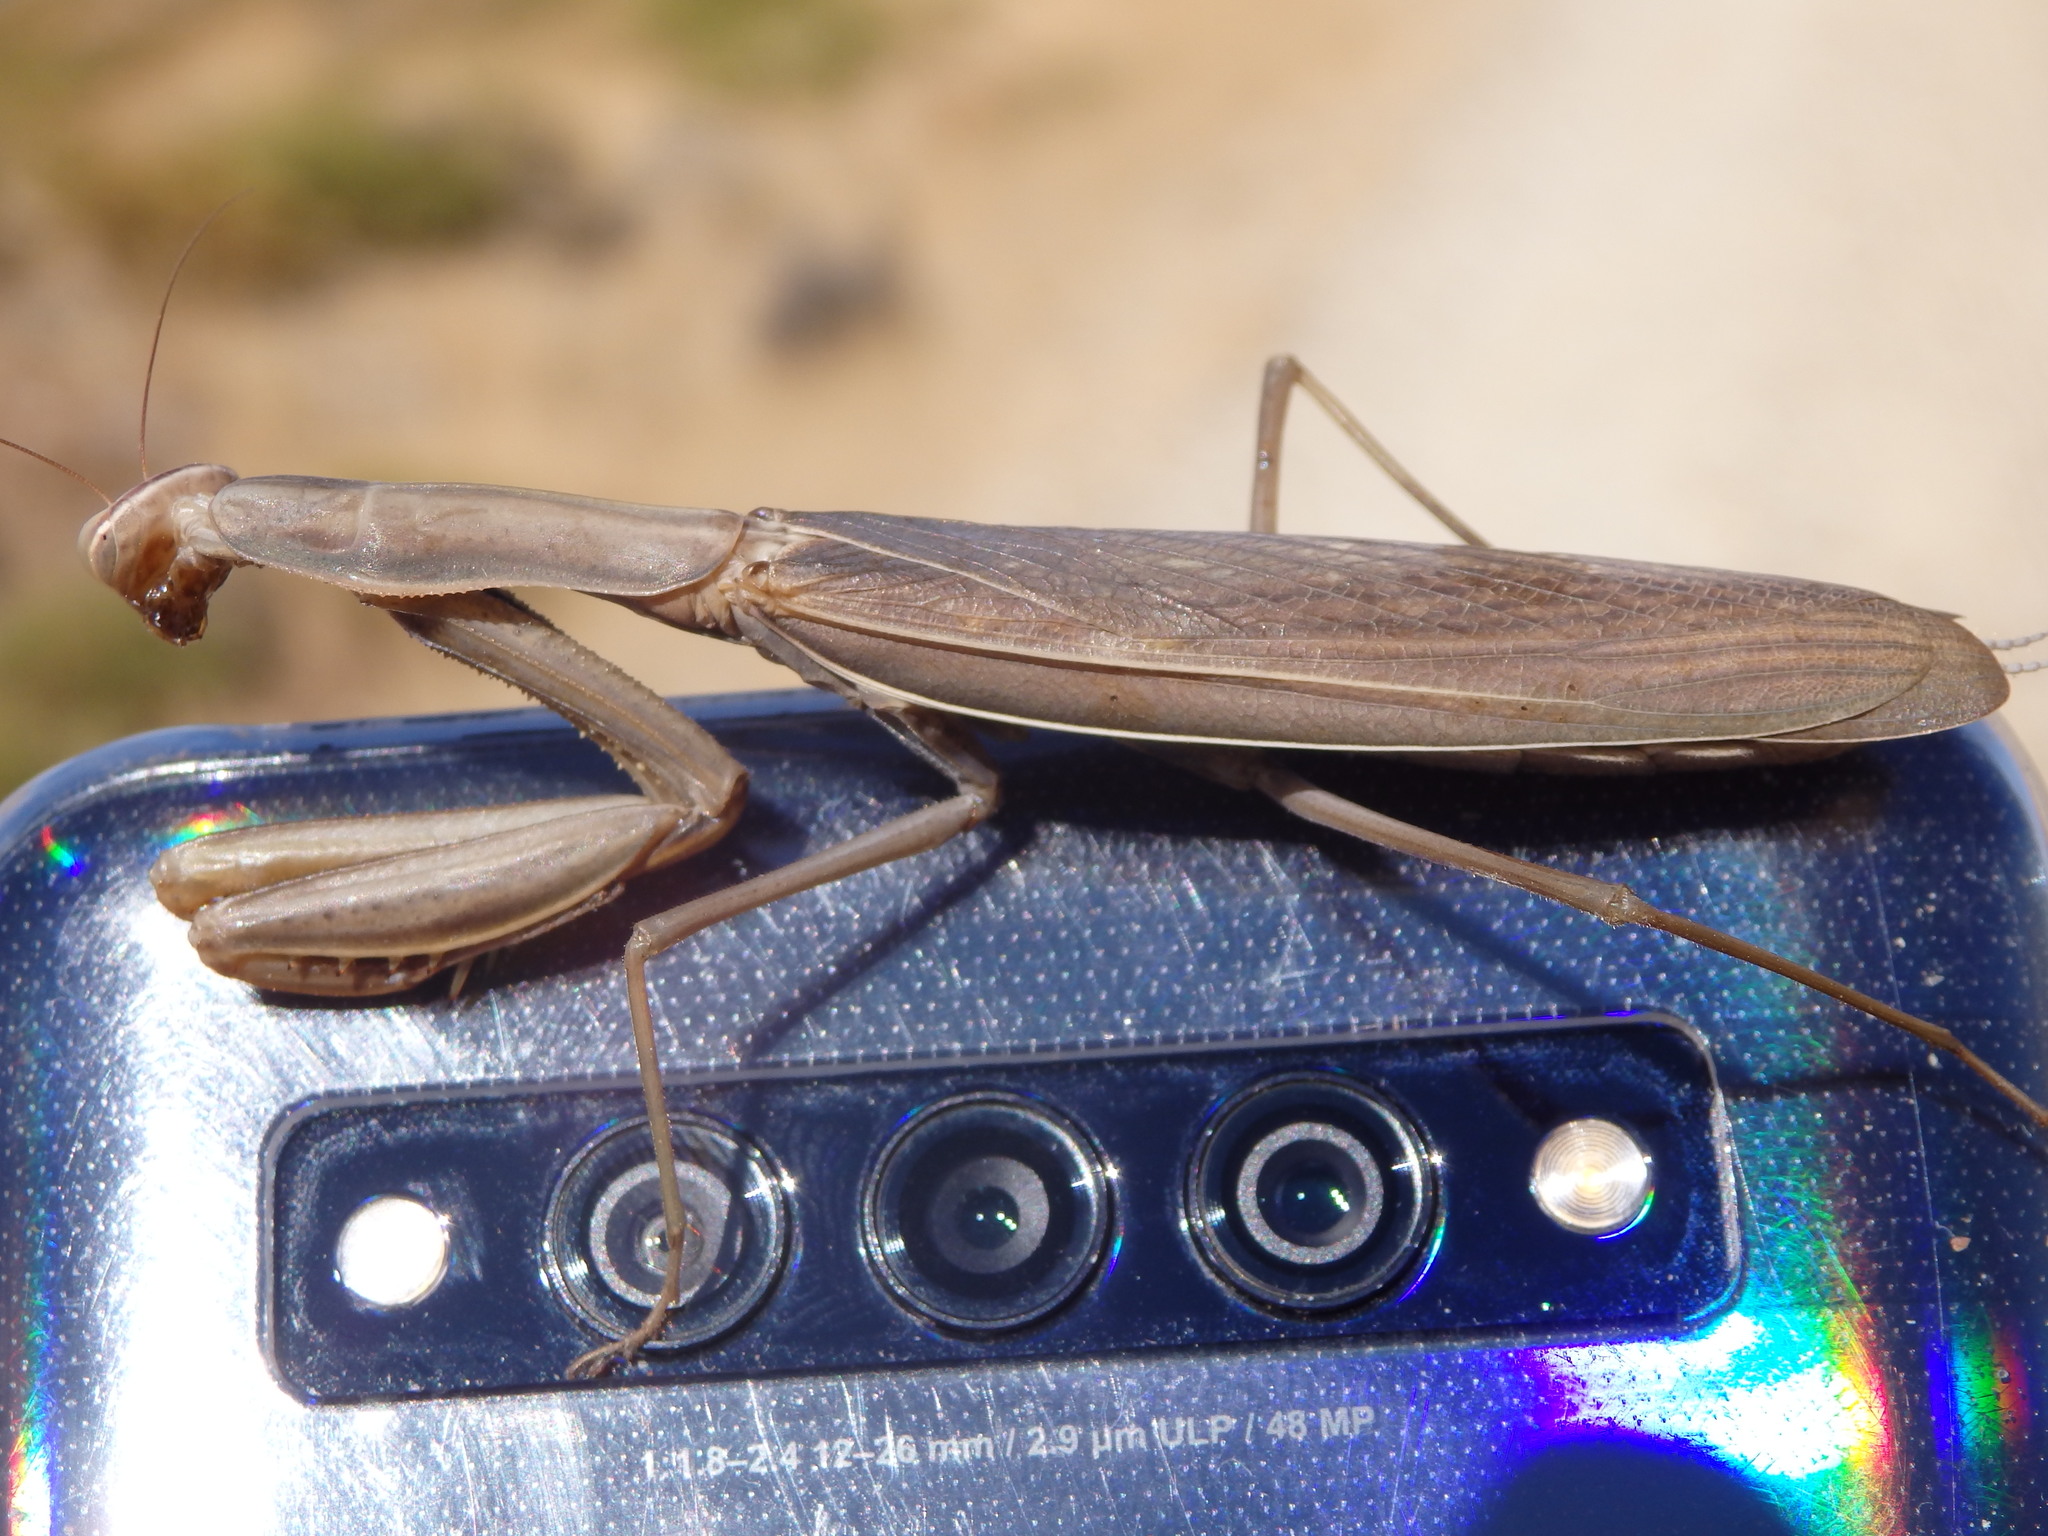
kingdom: Animalia
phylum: Arthropoda
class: Insecta
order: Mantodea
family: Mantidae
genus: Mantis
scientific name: Mantis religiosa
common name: Praying mantis
